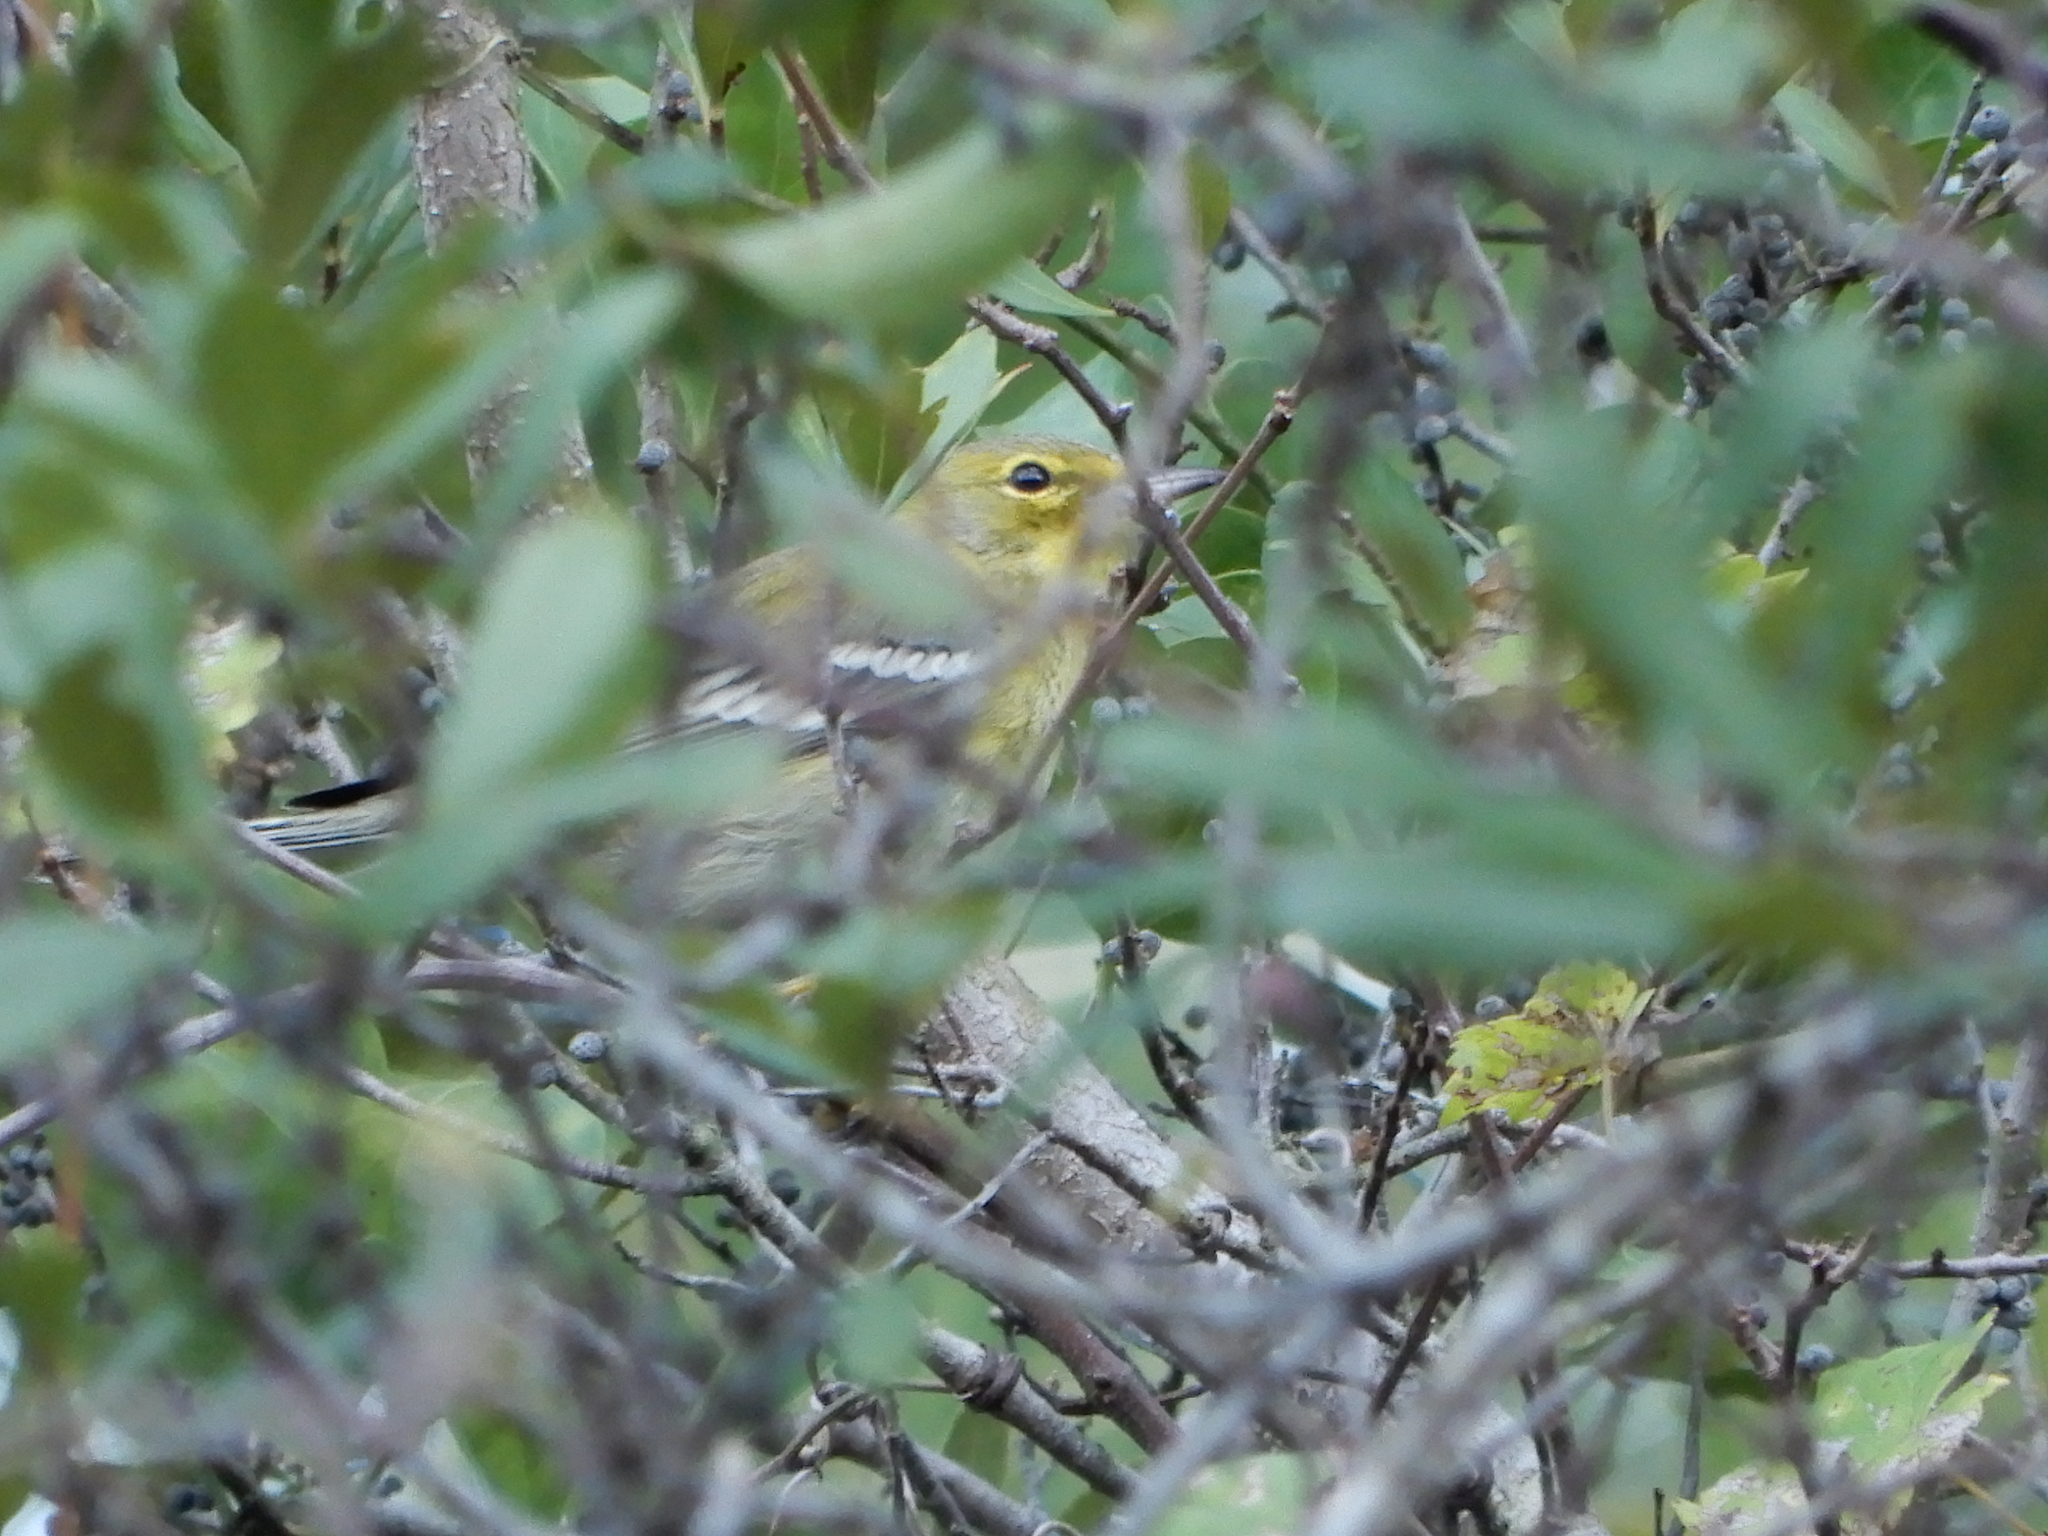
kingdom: Animalia
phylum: Chordata
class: Aves
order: Passeriformes
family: Parulidae
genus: Setophaga
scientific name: Setophaga pinus
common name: Pine warbler
